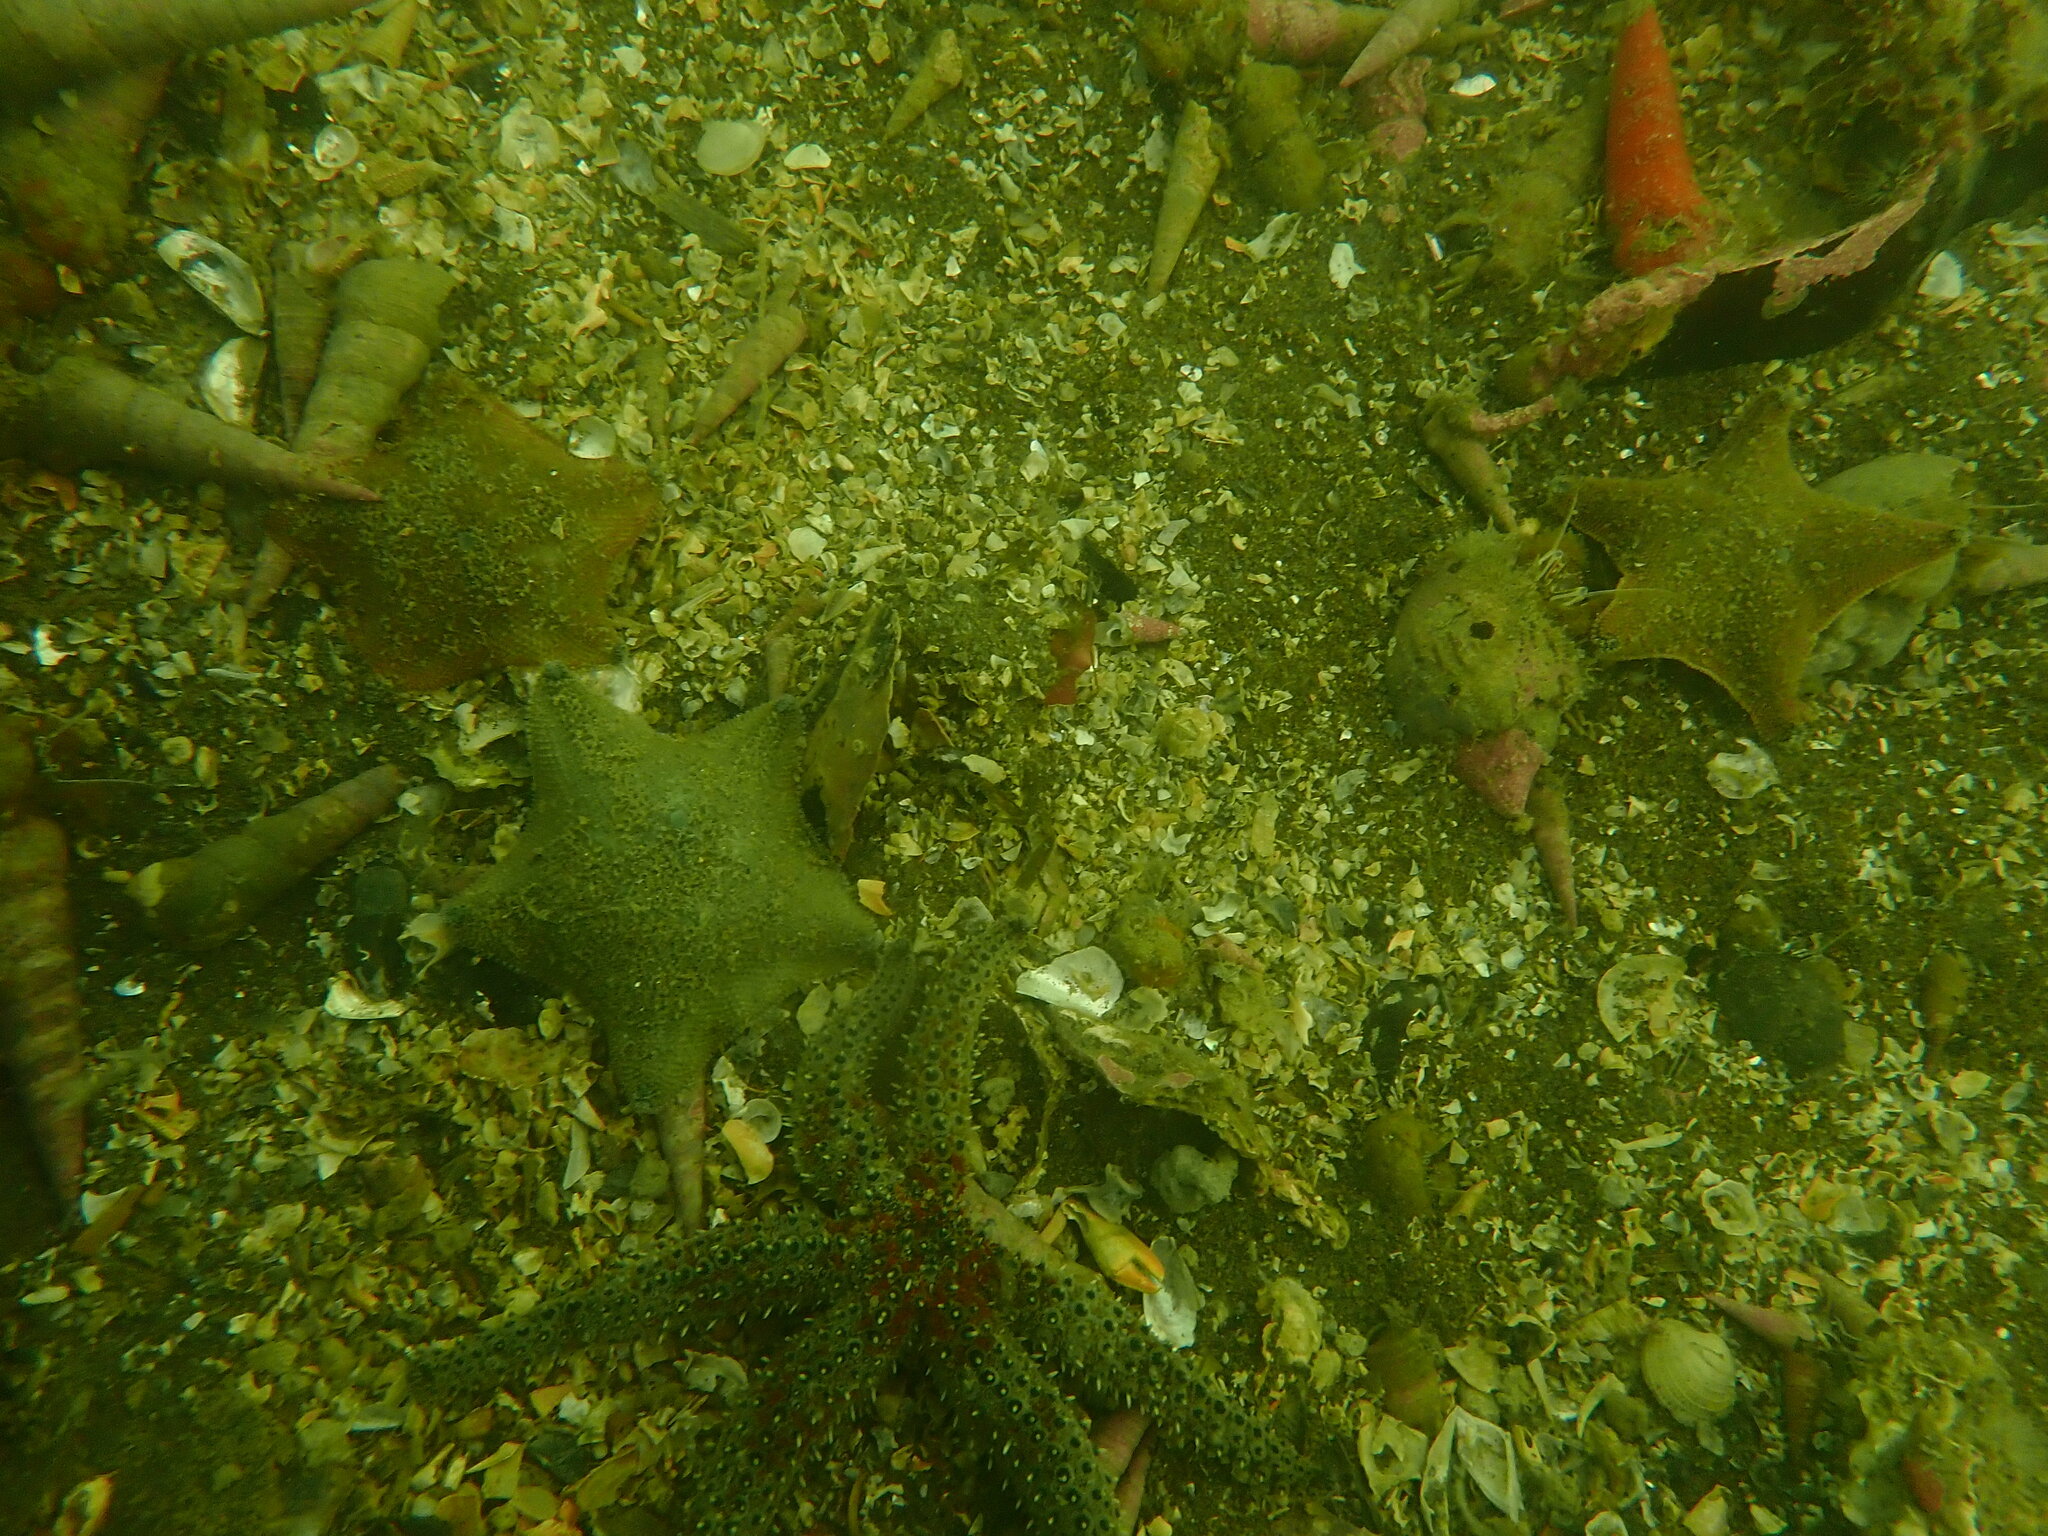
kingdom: Animalia
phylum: Echinodermata
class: Asteroidea
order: Valvatida
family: Asterinidae
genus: Patiriella
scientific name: Patiriella regularis
